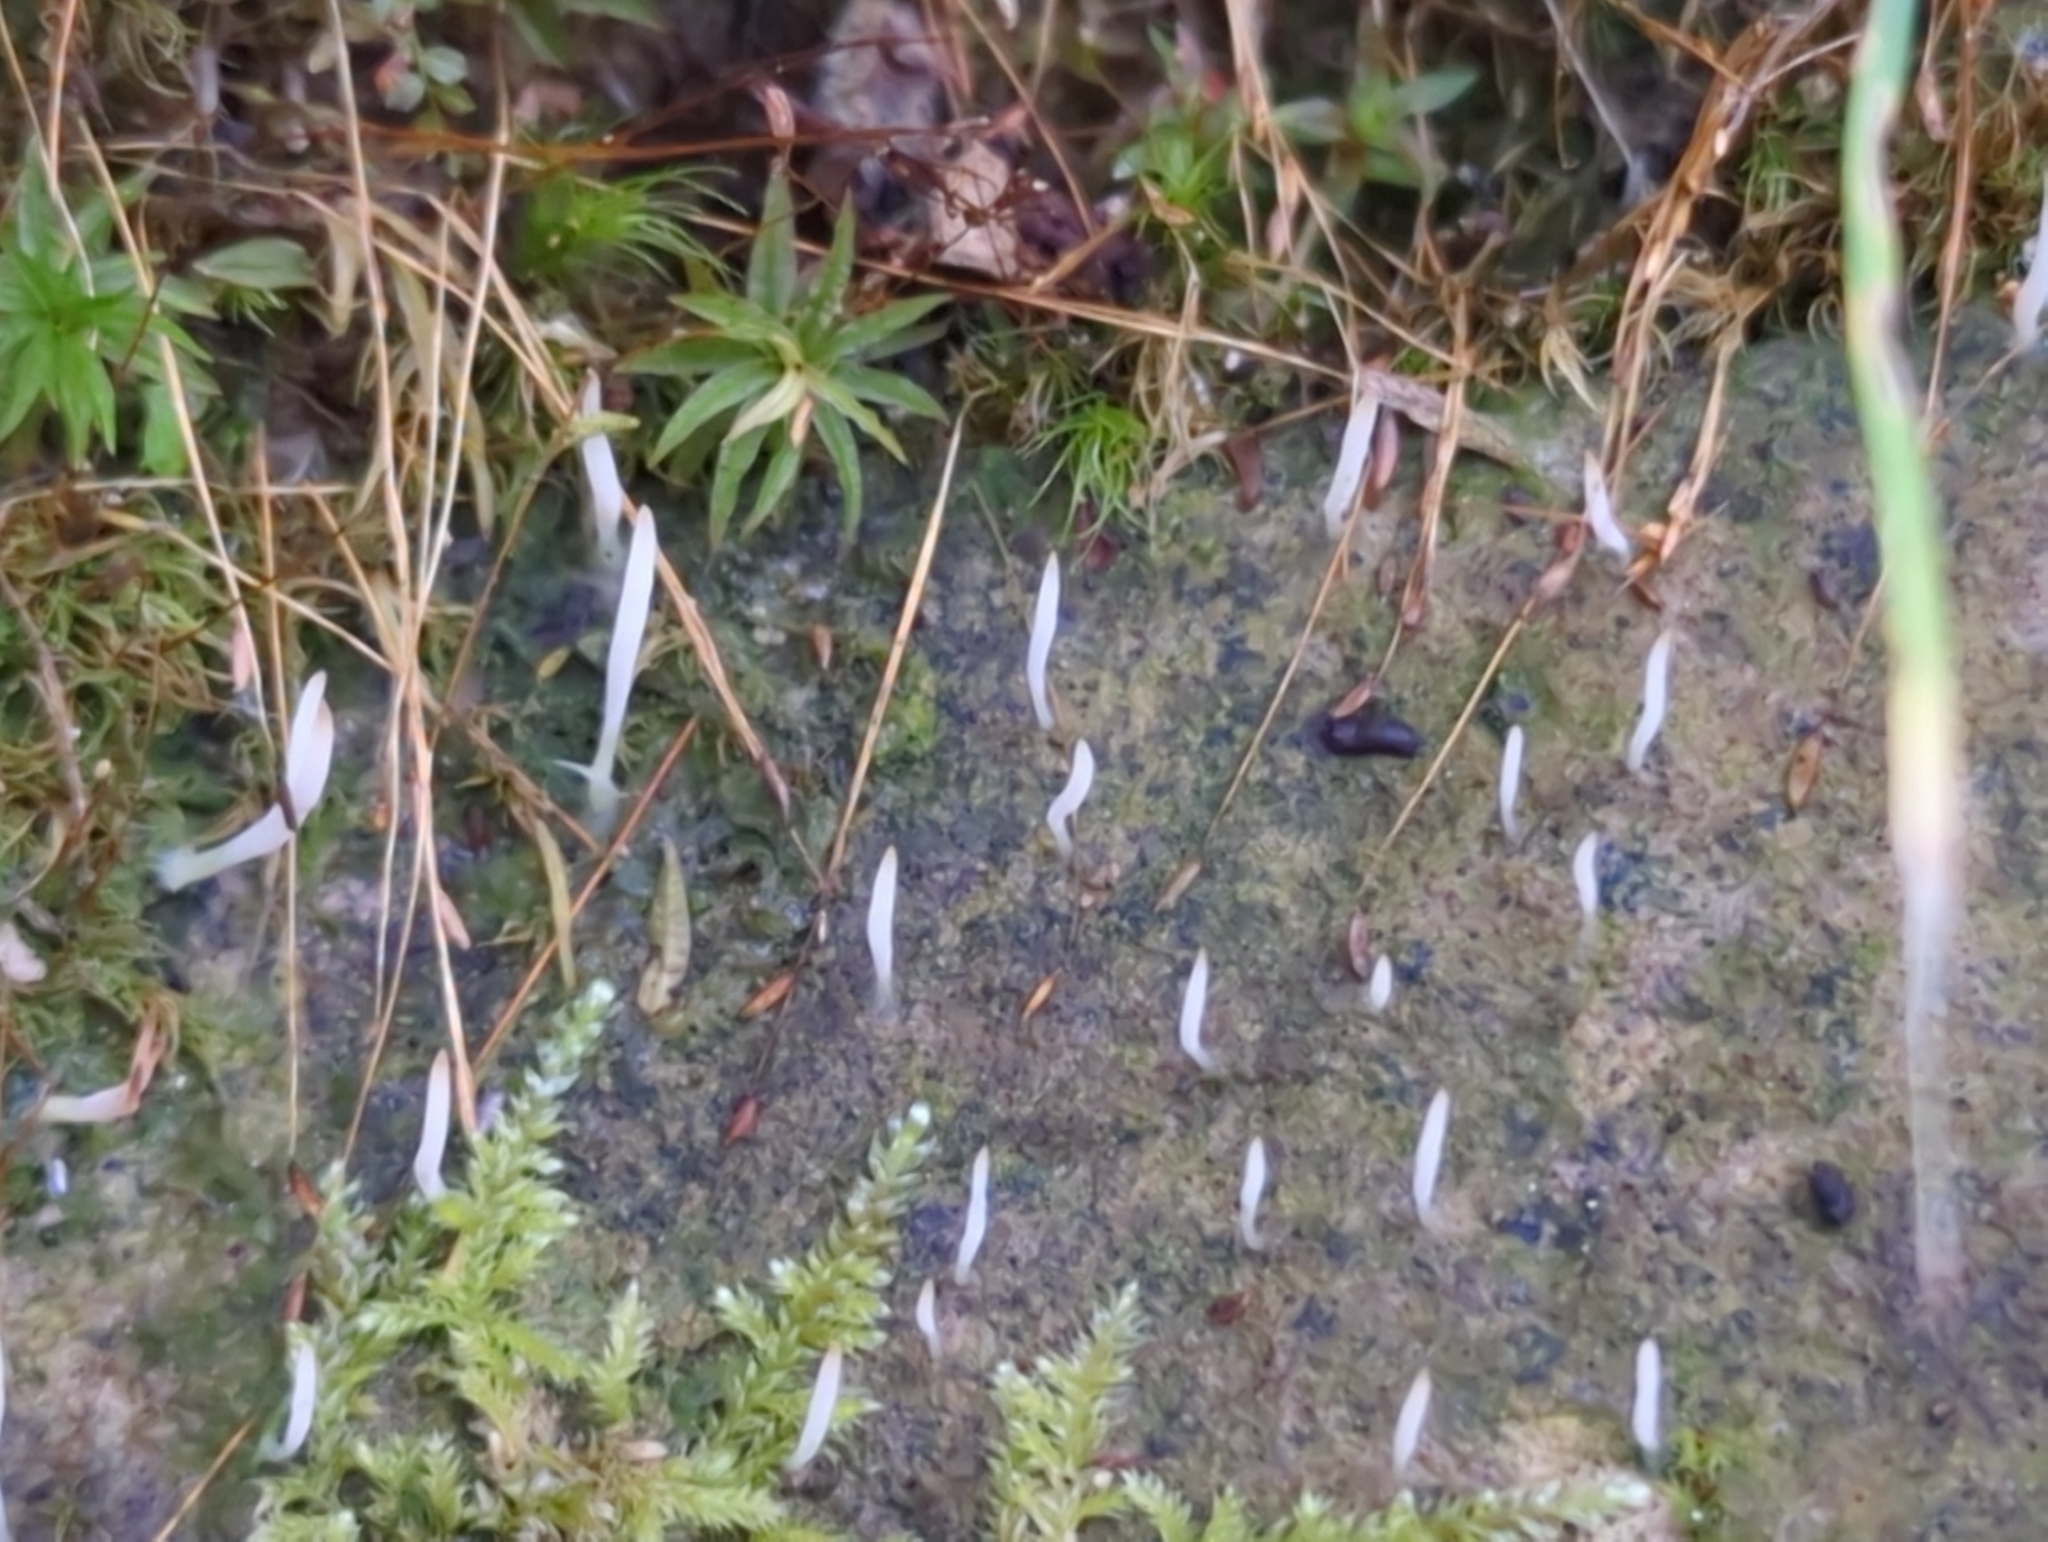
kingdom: Fungi
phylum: Basidiomycota
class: Agaricomycetes
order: Cantharellales
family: Hydnaceae
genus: Multiclavula
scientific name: Multiclavula mucida
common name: White green-algae coral
